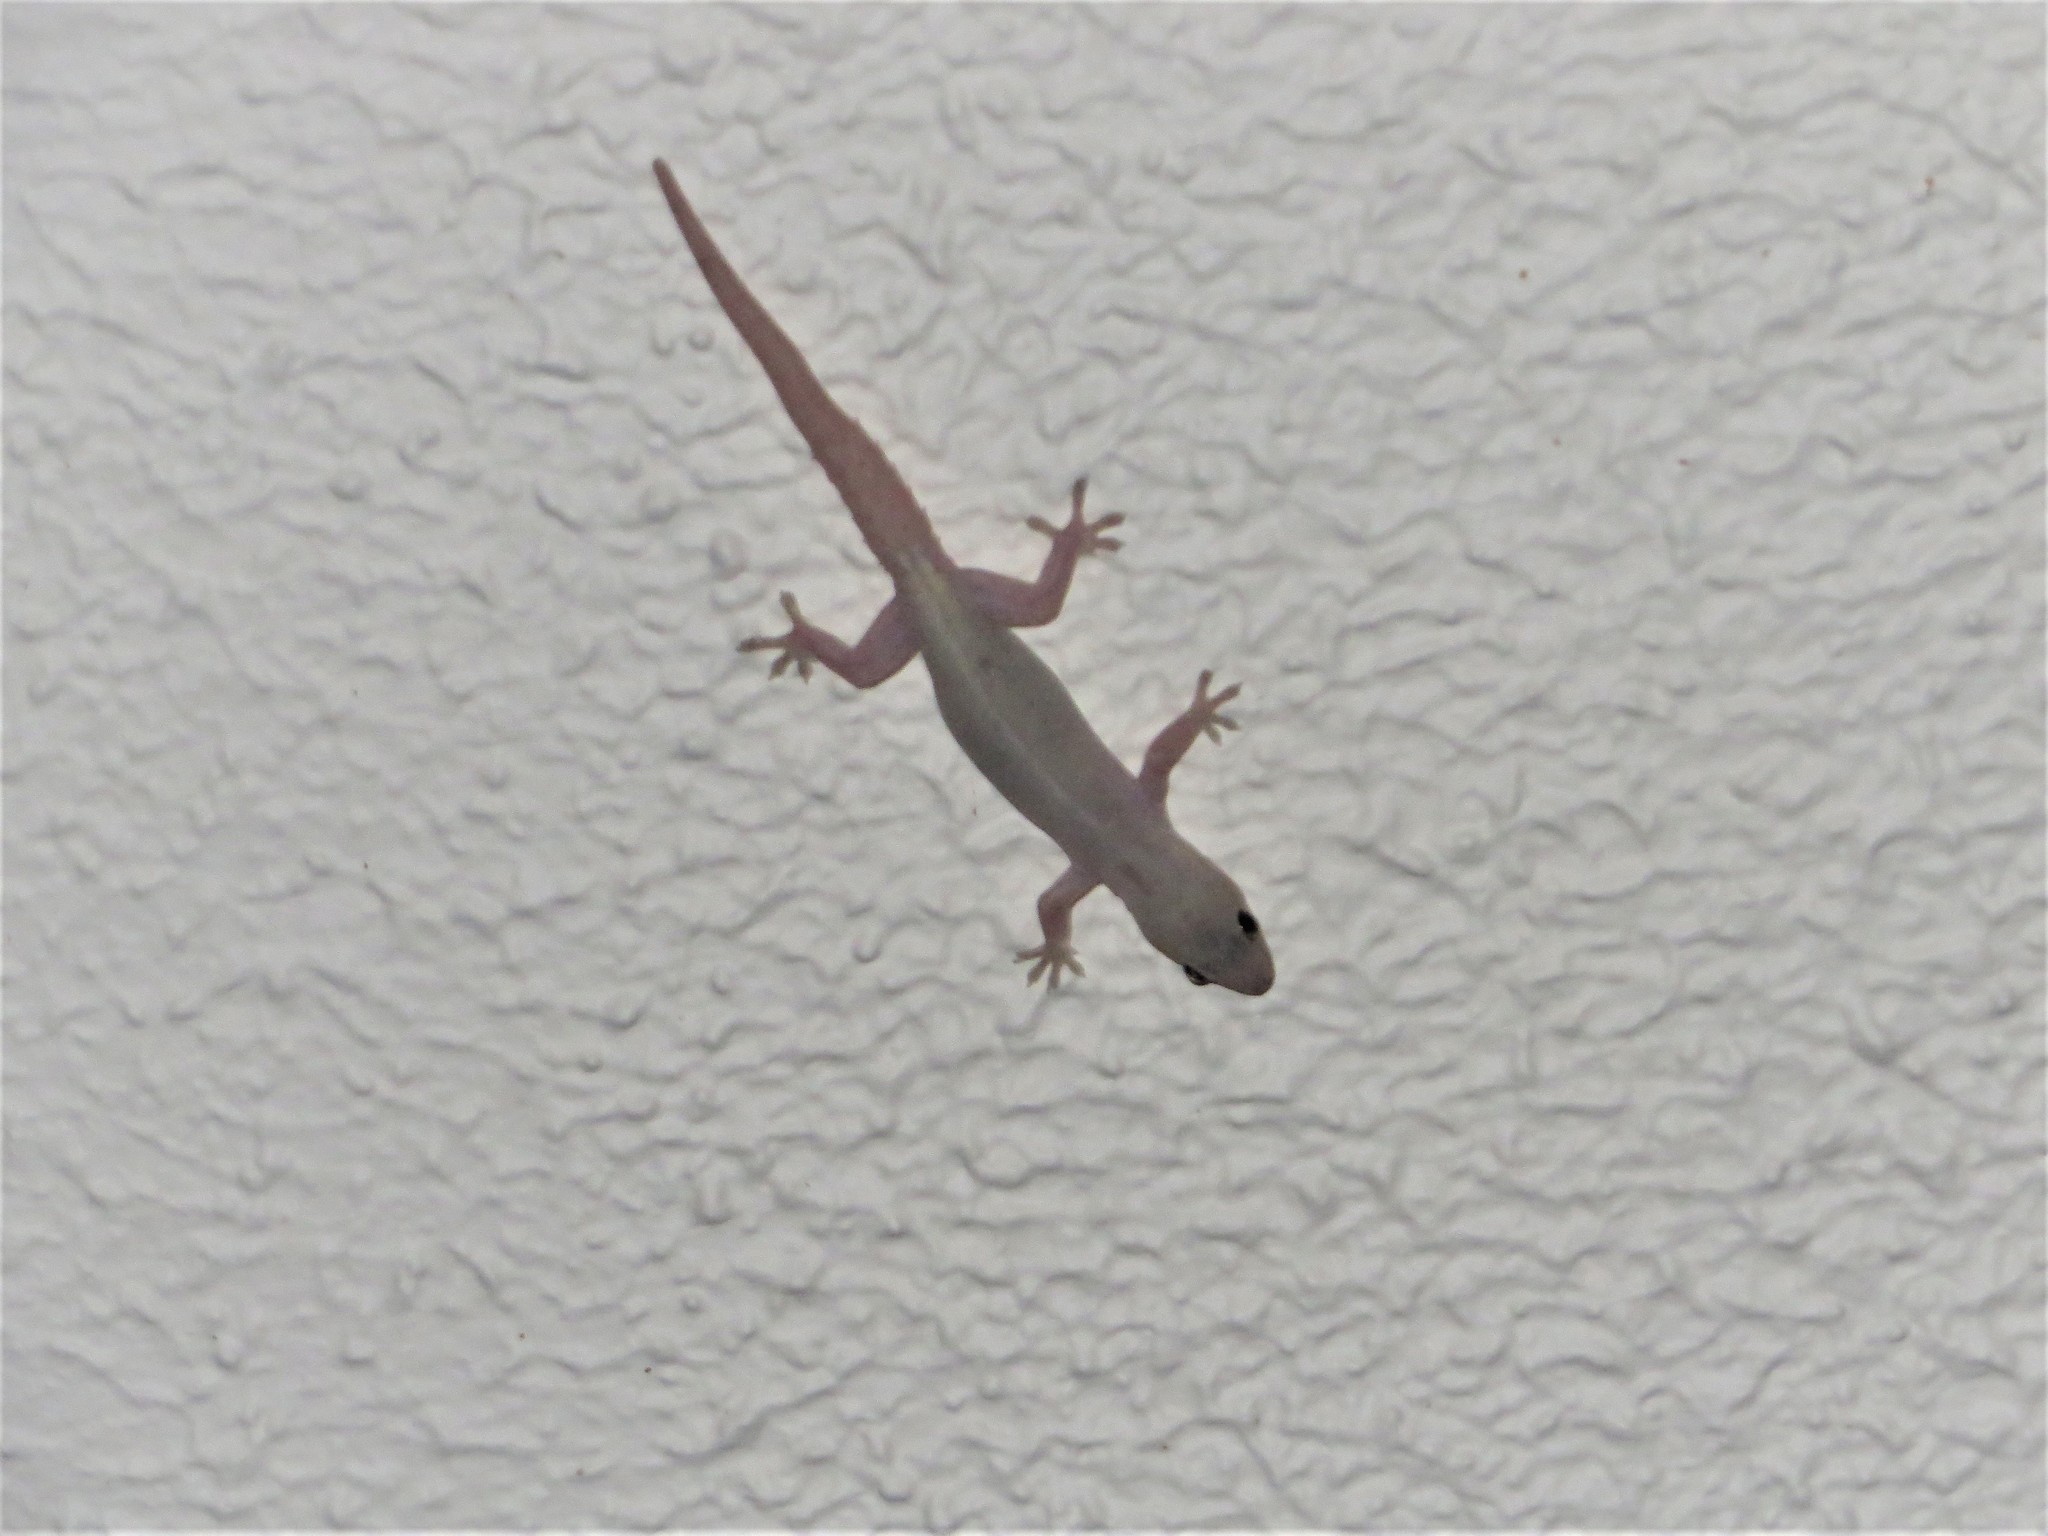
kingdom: Animalia
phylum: Chordata
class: Squamata
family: Gekkonidae
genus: Hemidactylus
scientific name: Hemidactylus frenatus
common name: Common house gecko
